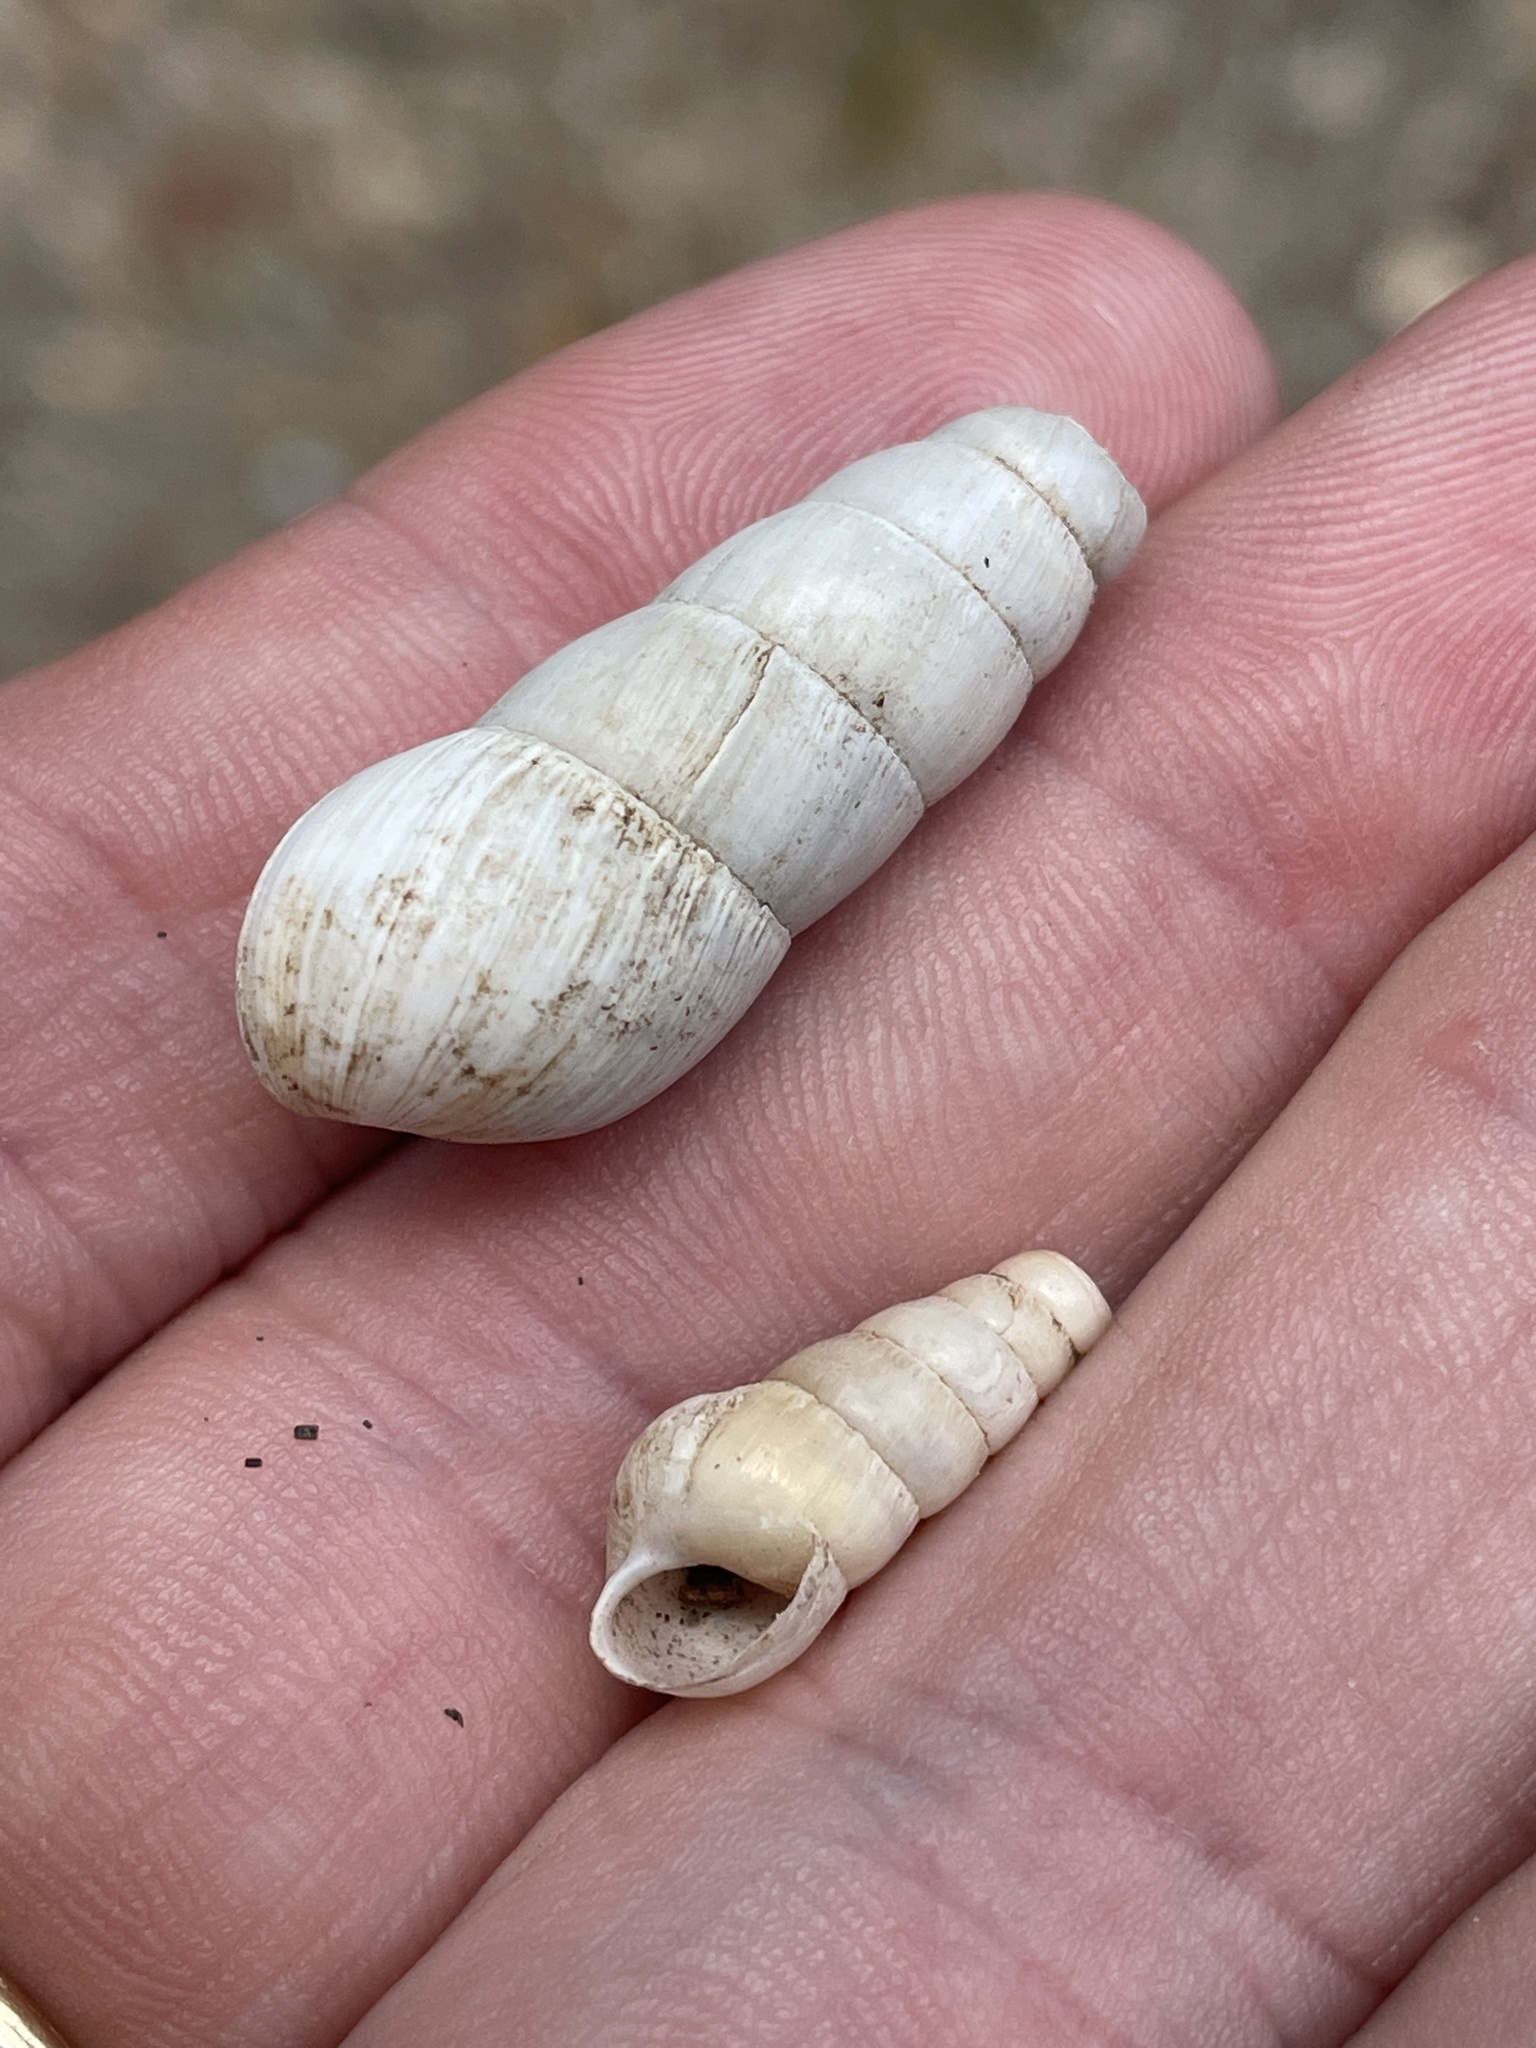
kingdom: Animalia
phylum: Mollusca
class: Gastropoda
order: Stylommatophora
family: Achatinidae
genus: Rumina
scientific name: Rumina decollata
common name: Decollate snail
